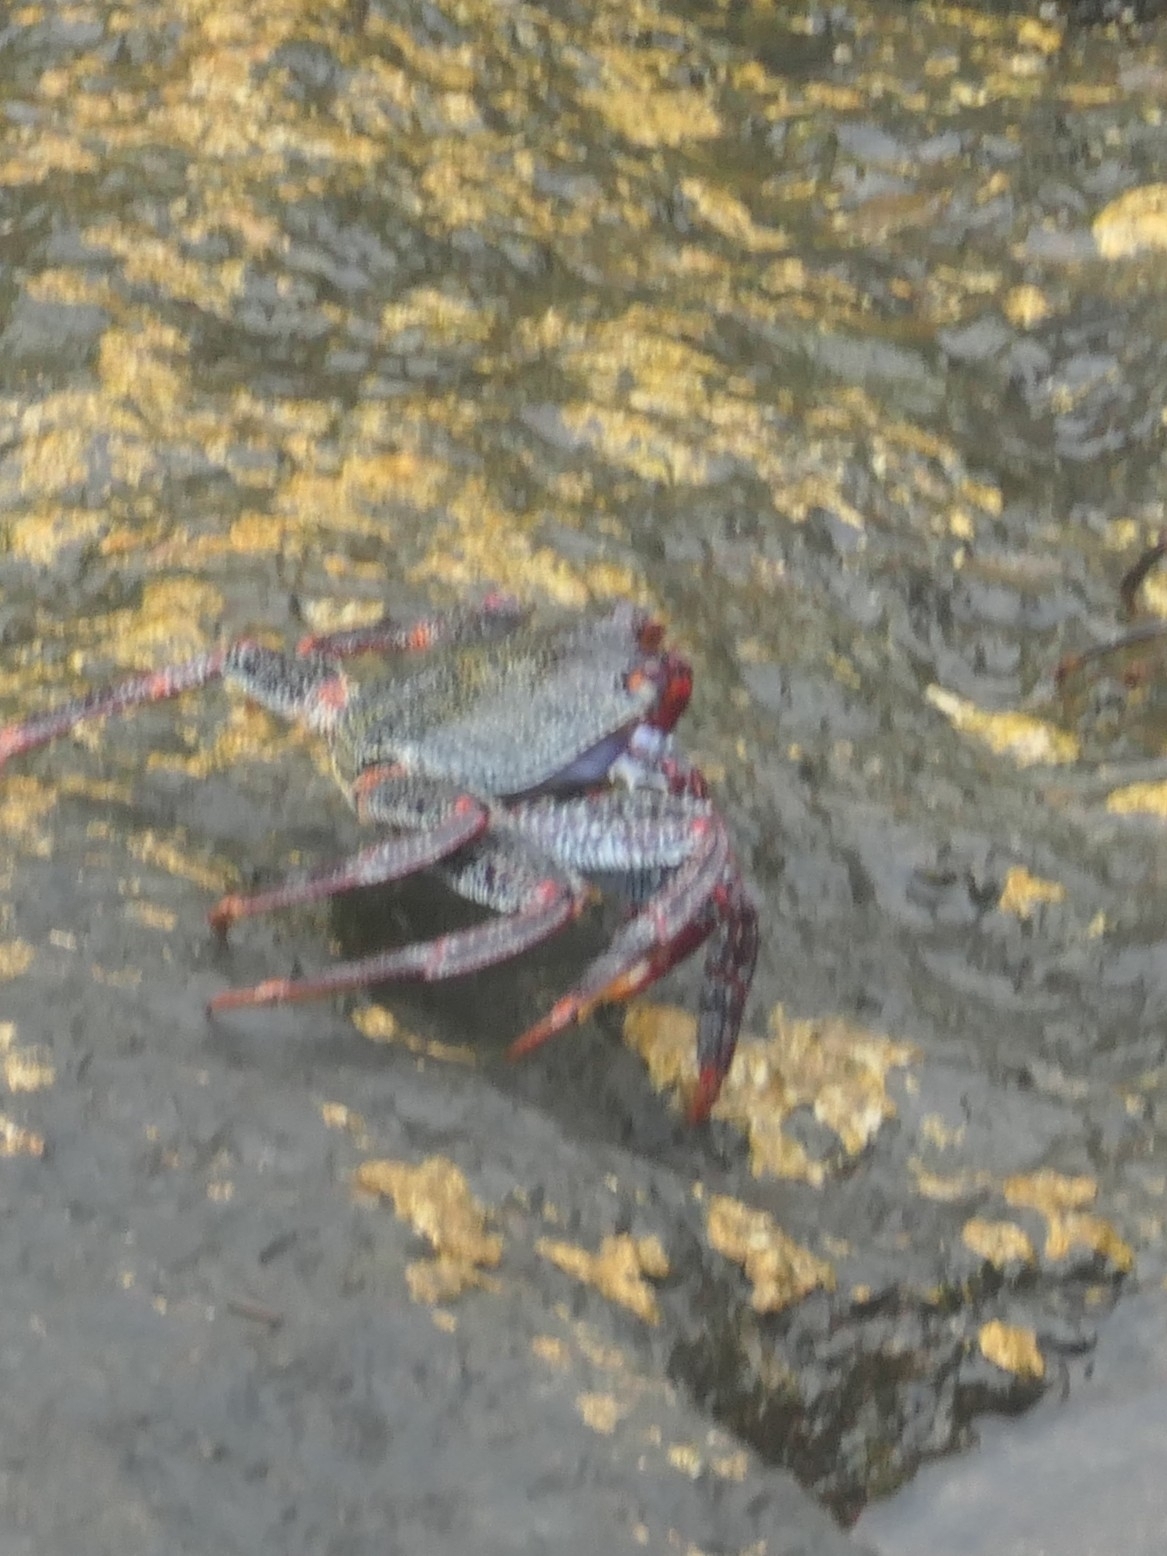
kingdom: Animalia
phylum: Arthropoda
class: Malacostraca
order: Decapoda
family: Grapsidae
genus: Grapsus
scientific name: Grapsus adscensionis
